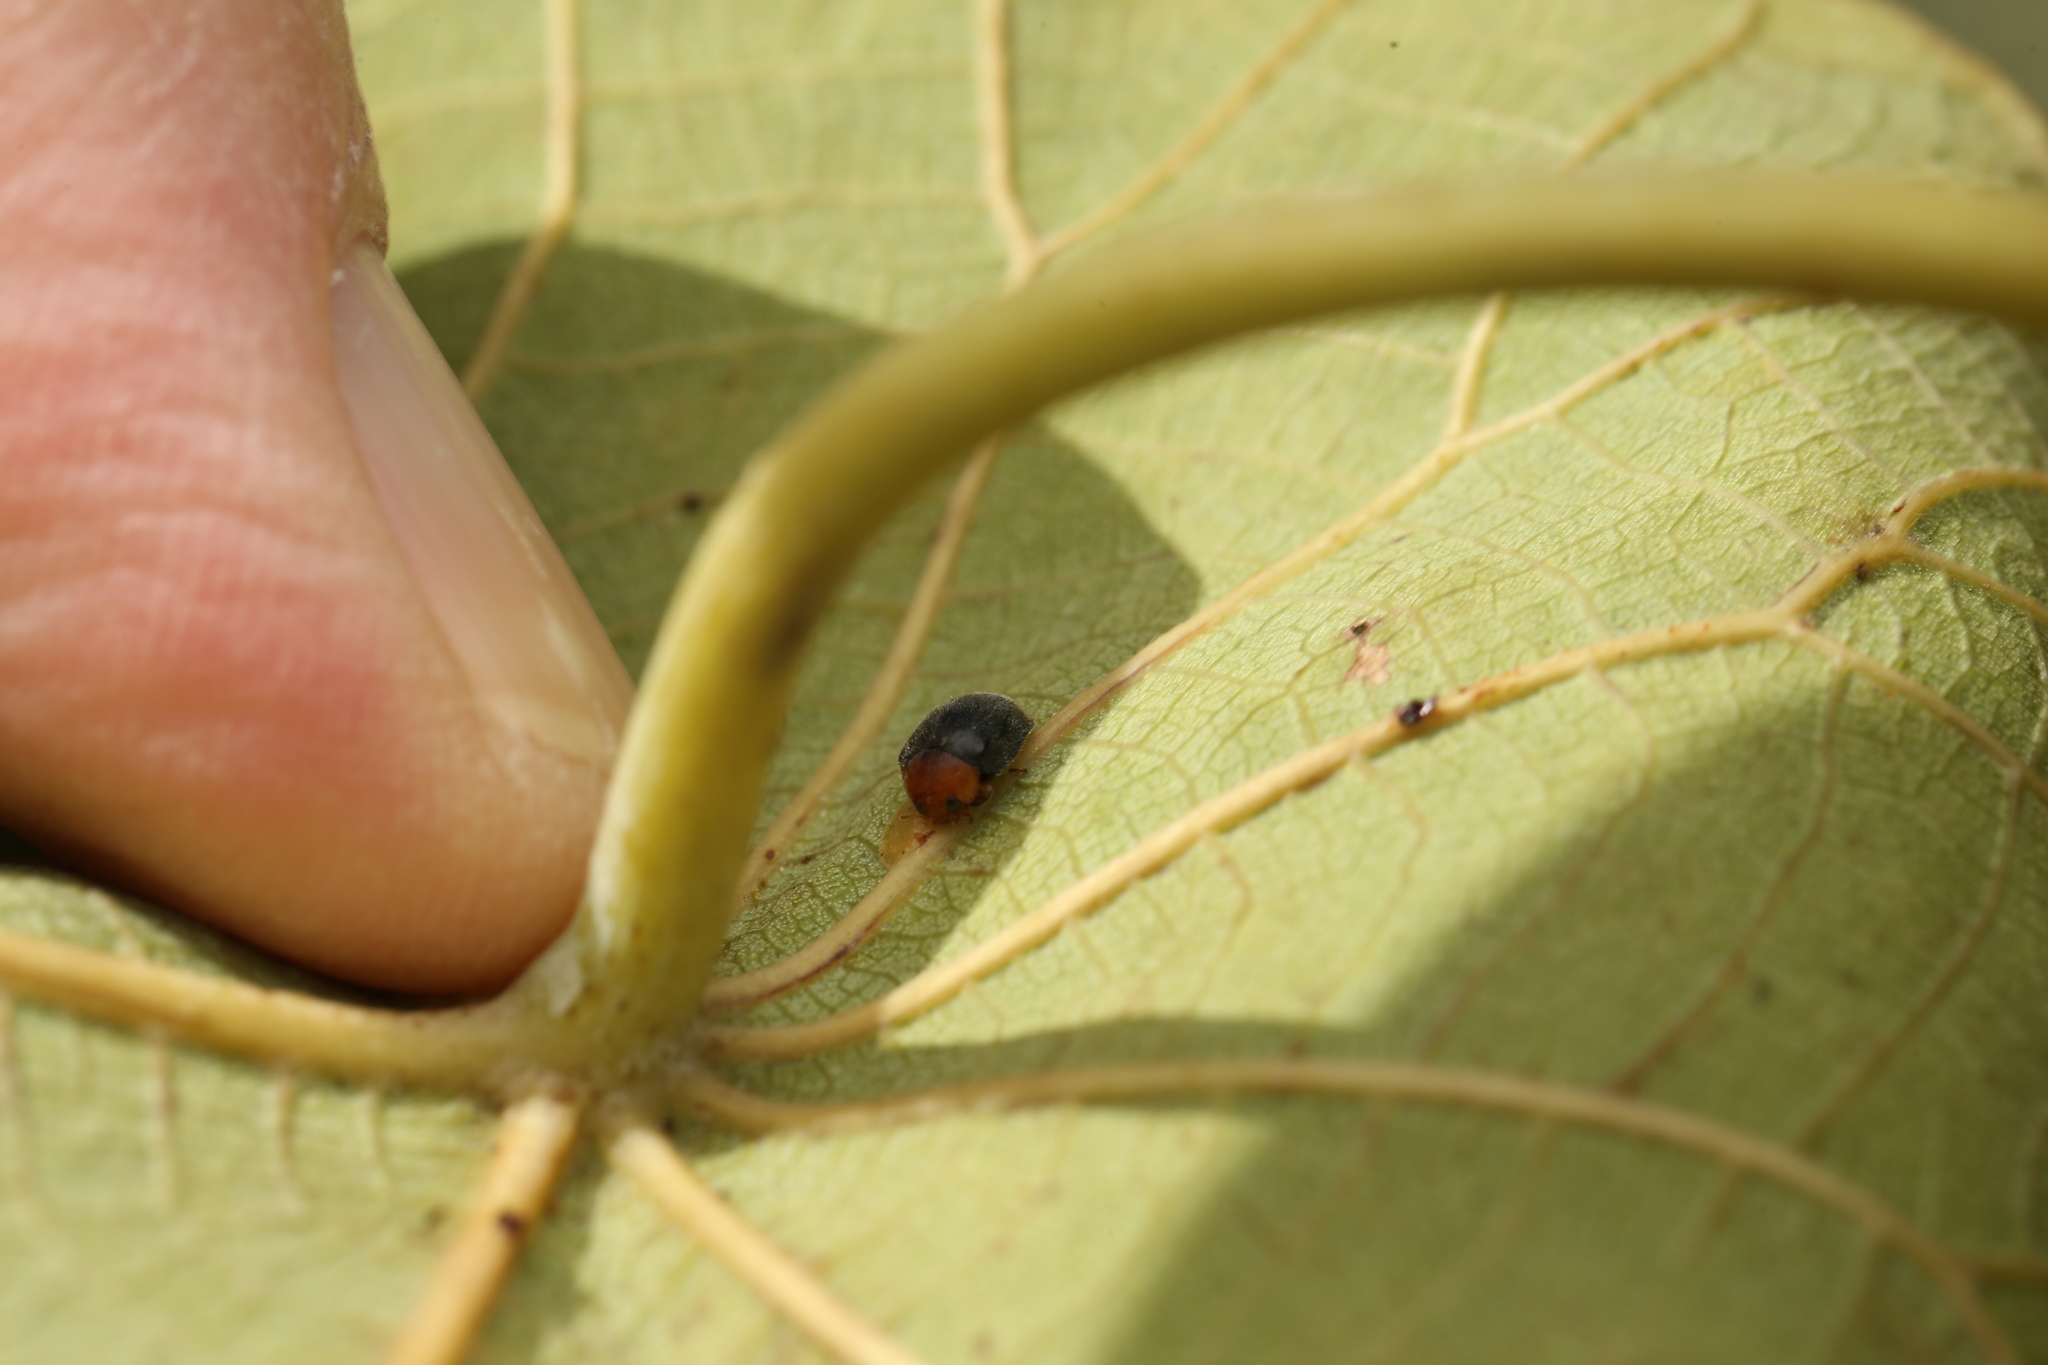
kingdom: Animalia
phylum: Arthropoda
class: Insecta
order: Coleoptera
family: Coccinellidae
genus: Cryptolaemus
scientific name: Cryptolaemus montrouzieri
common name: Mealybug destroyer
